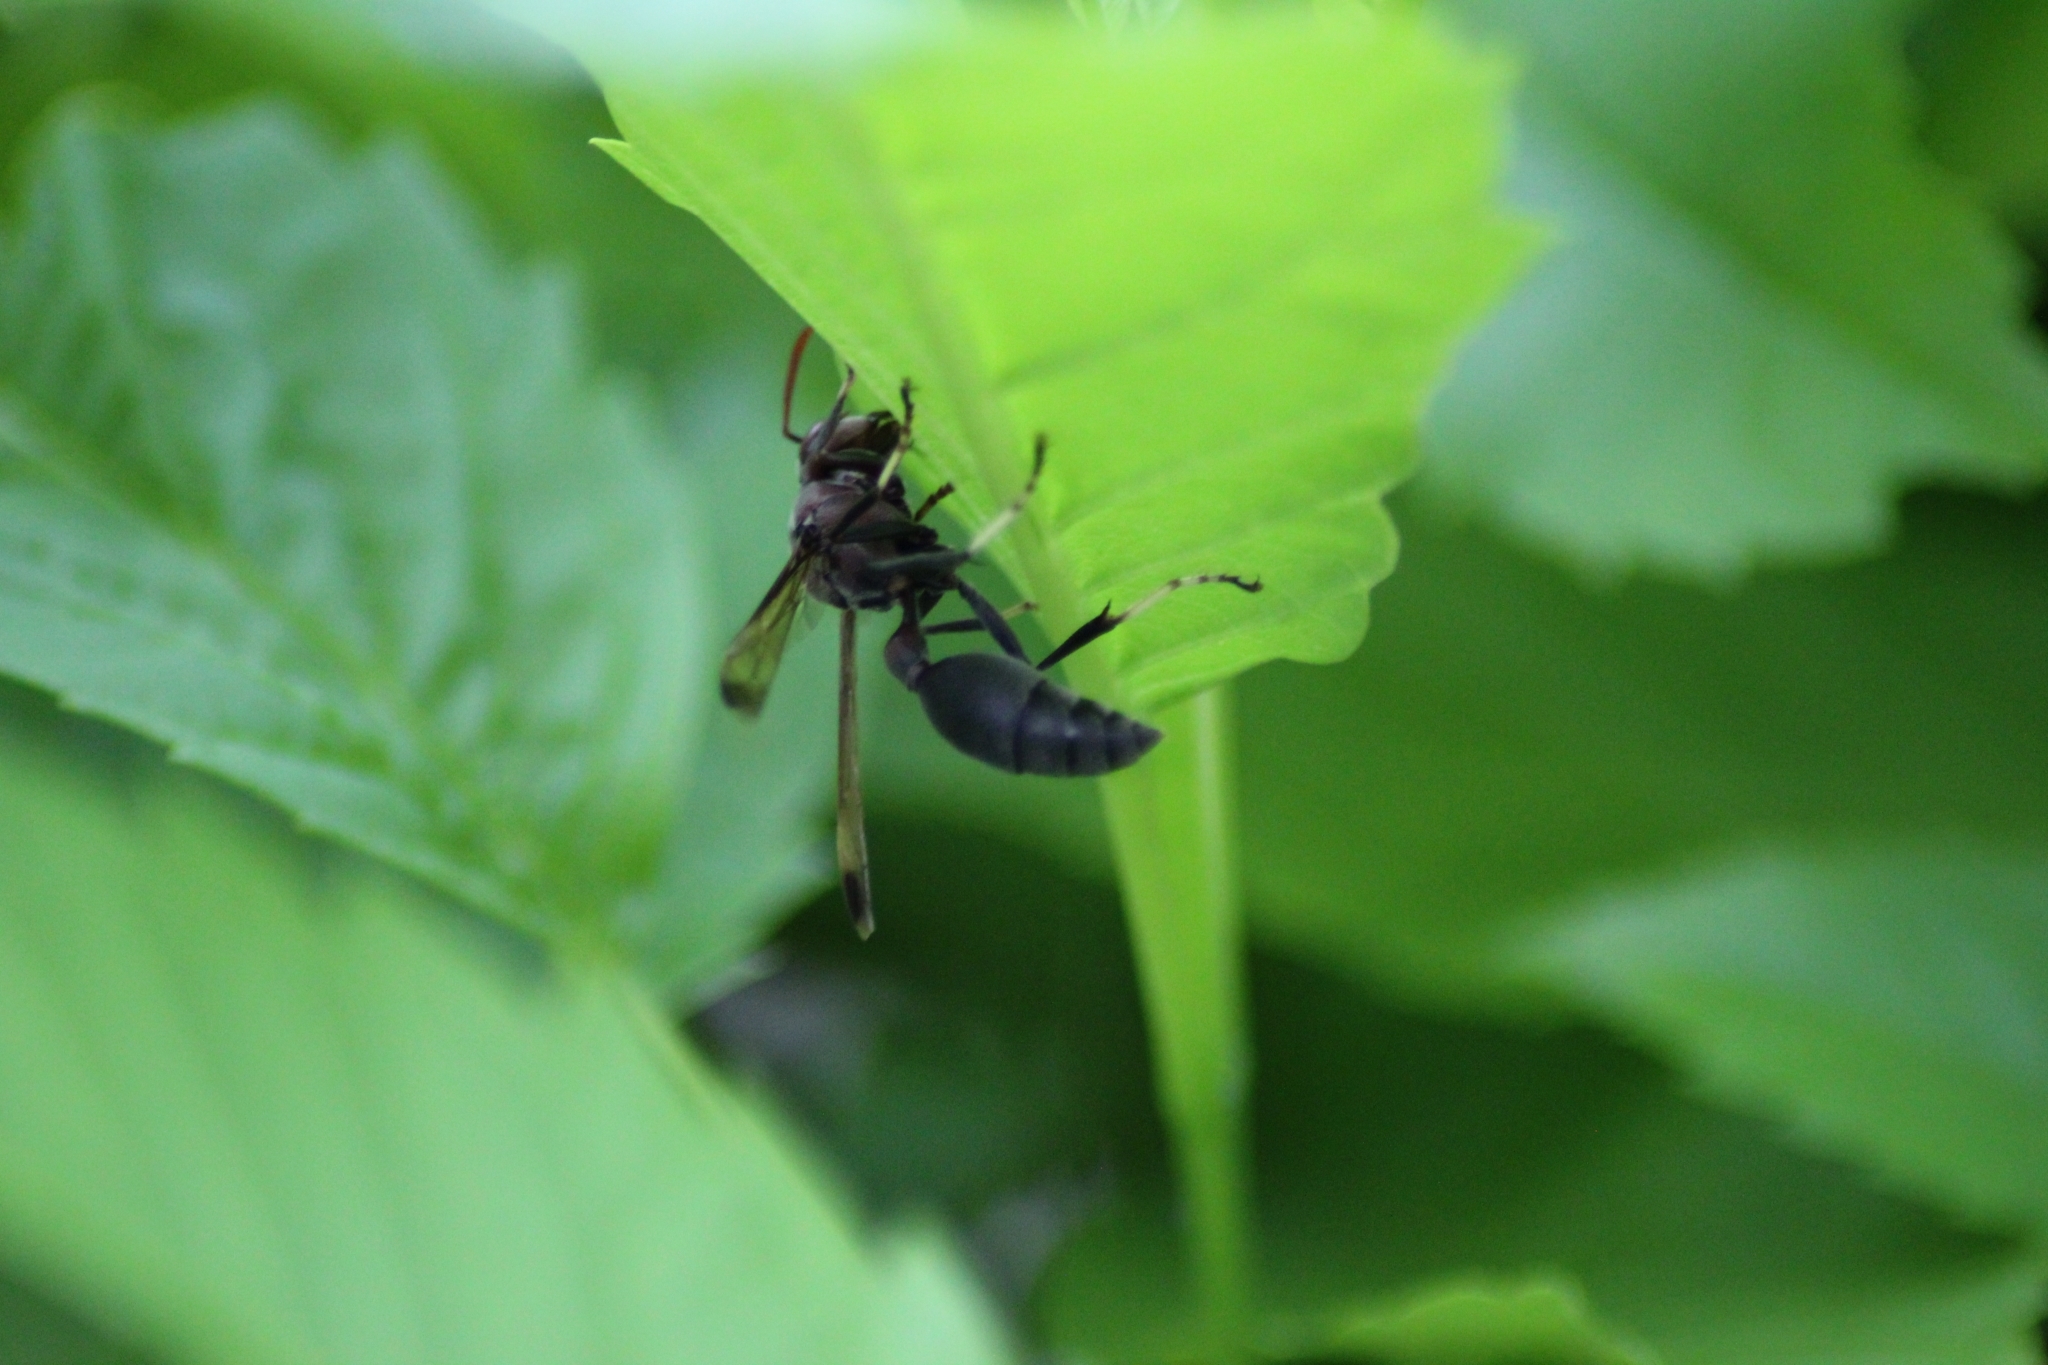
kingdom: Animalia
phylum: Arthropoda
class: Insecta
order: Hymenoptera
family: Vespidae
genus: Ropalidia
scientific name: Ropalidia magnanima
